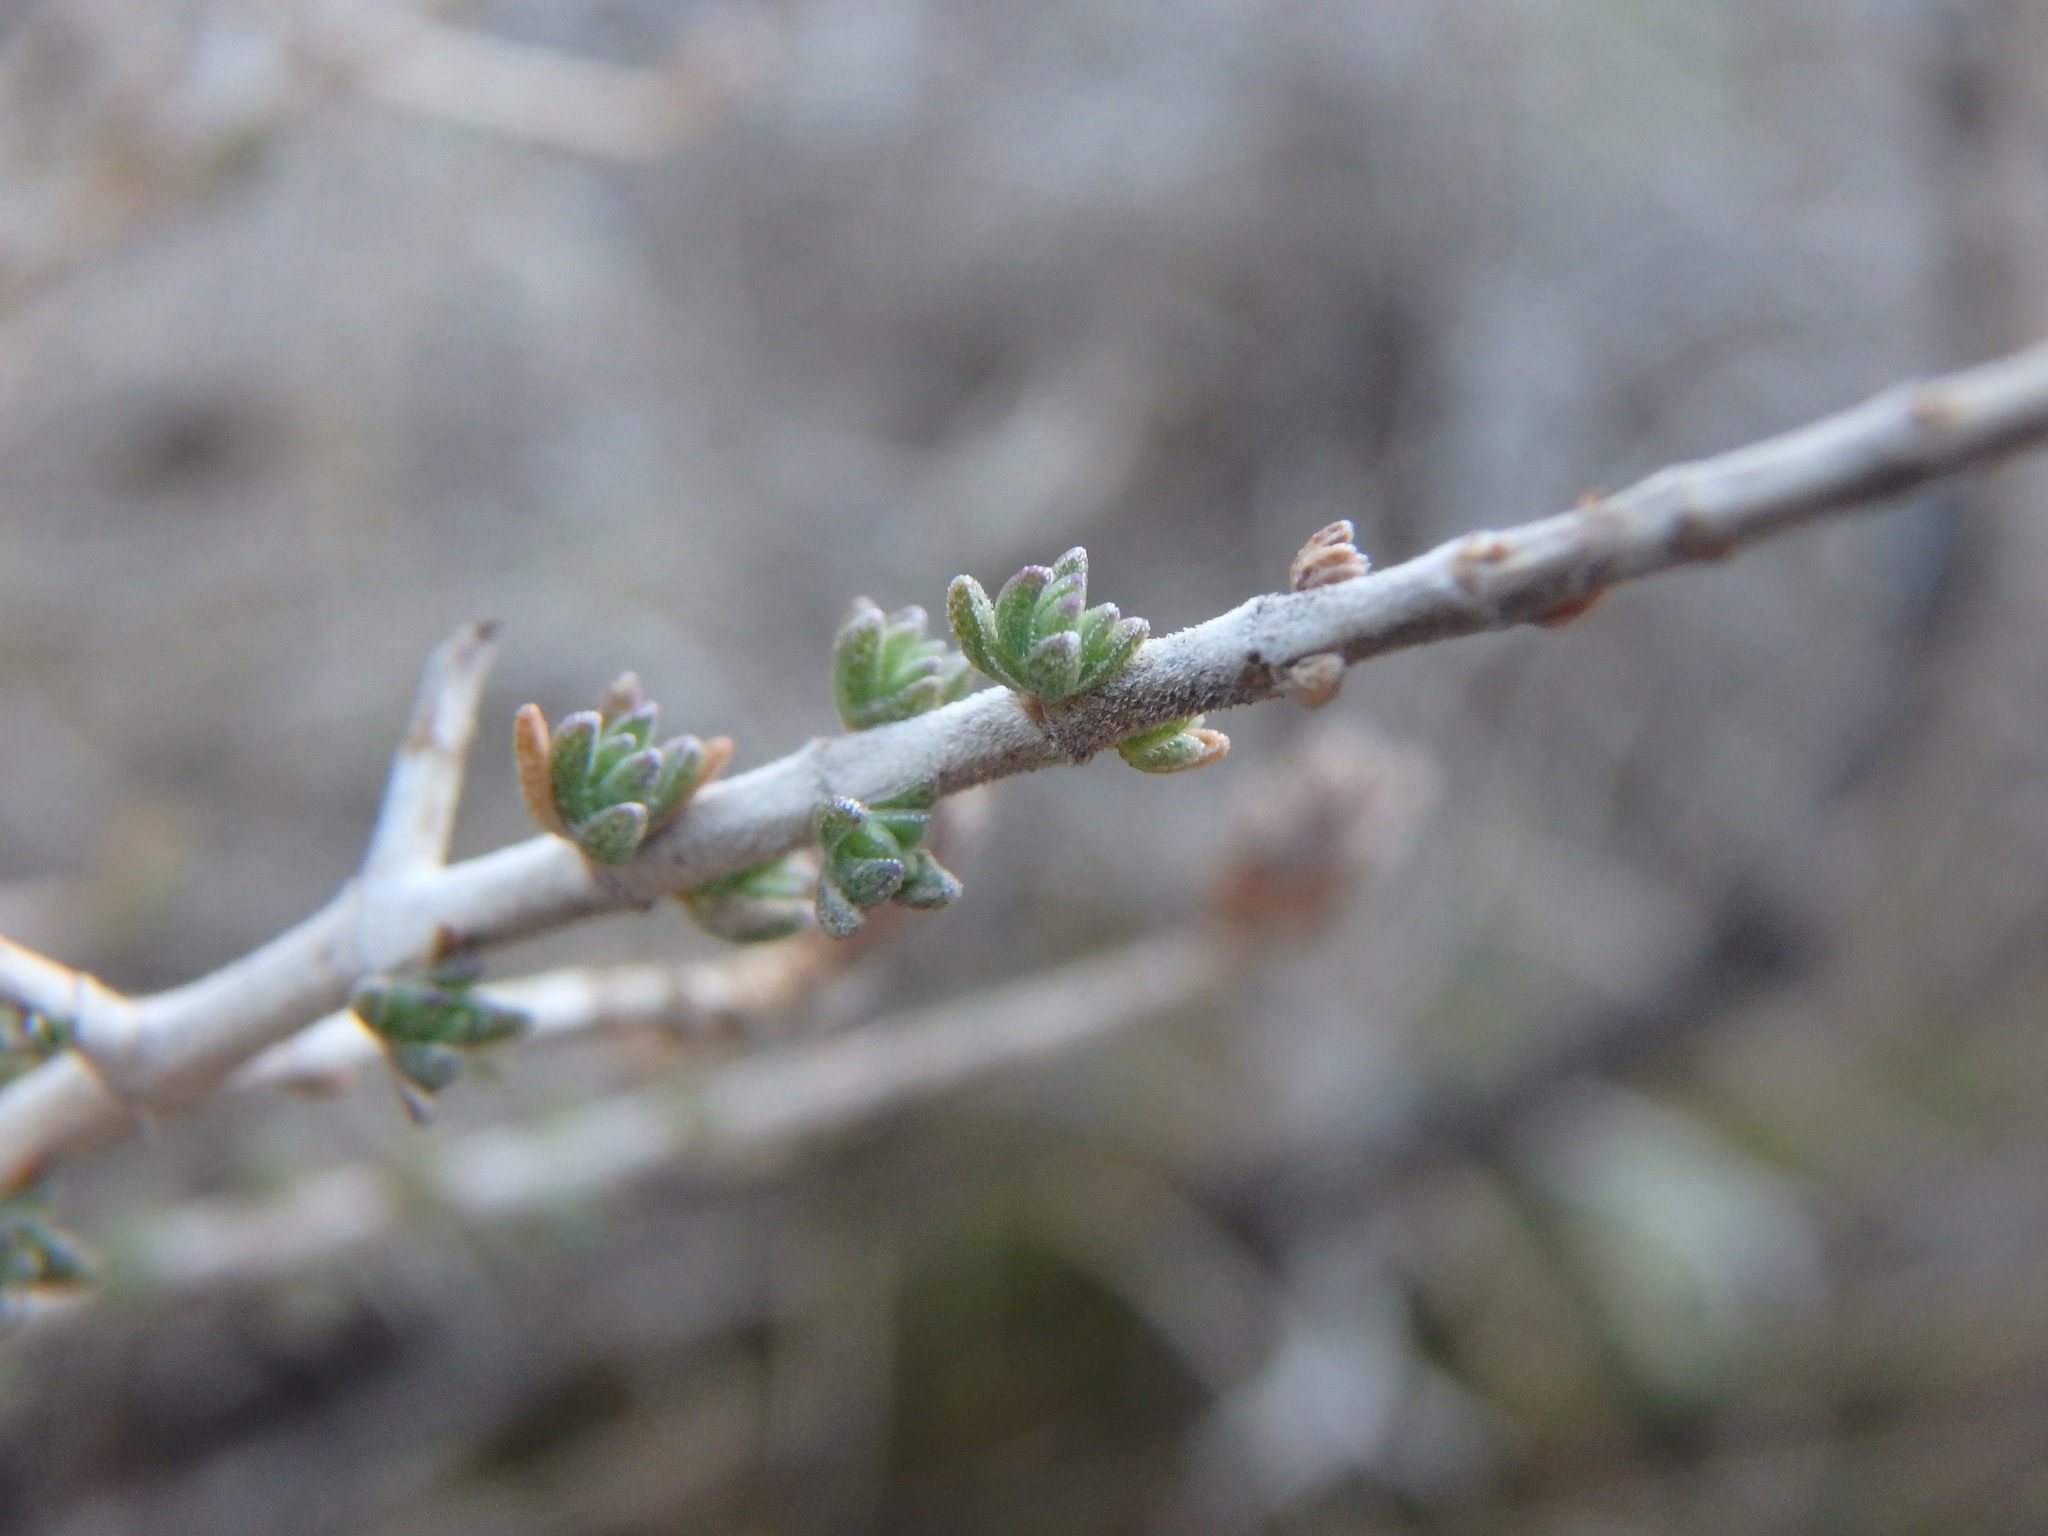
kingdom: Plantae
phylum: Tracheophyta
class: Magnoliopsida
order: Lamiales
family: Lamiaceae
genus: Thymbra
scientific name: Thymbra capitata
